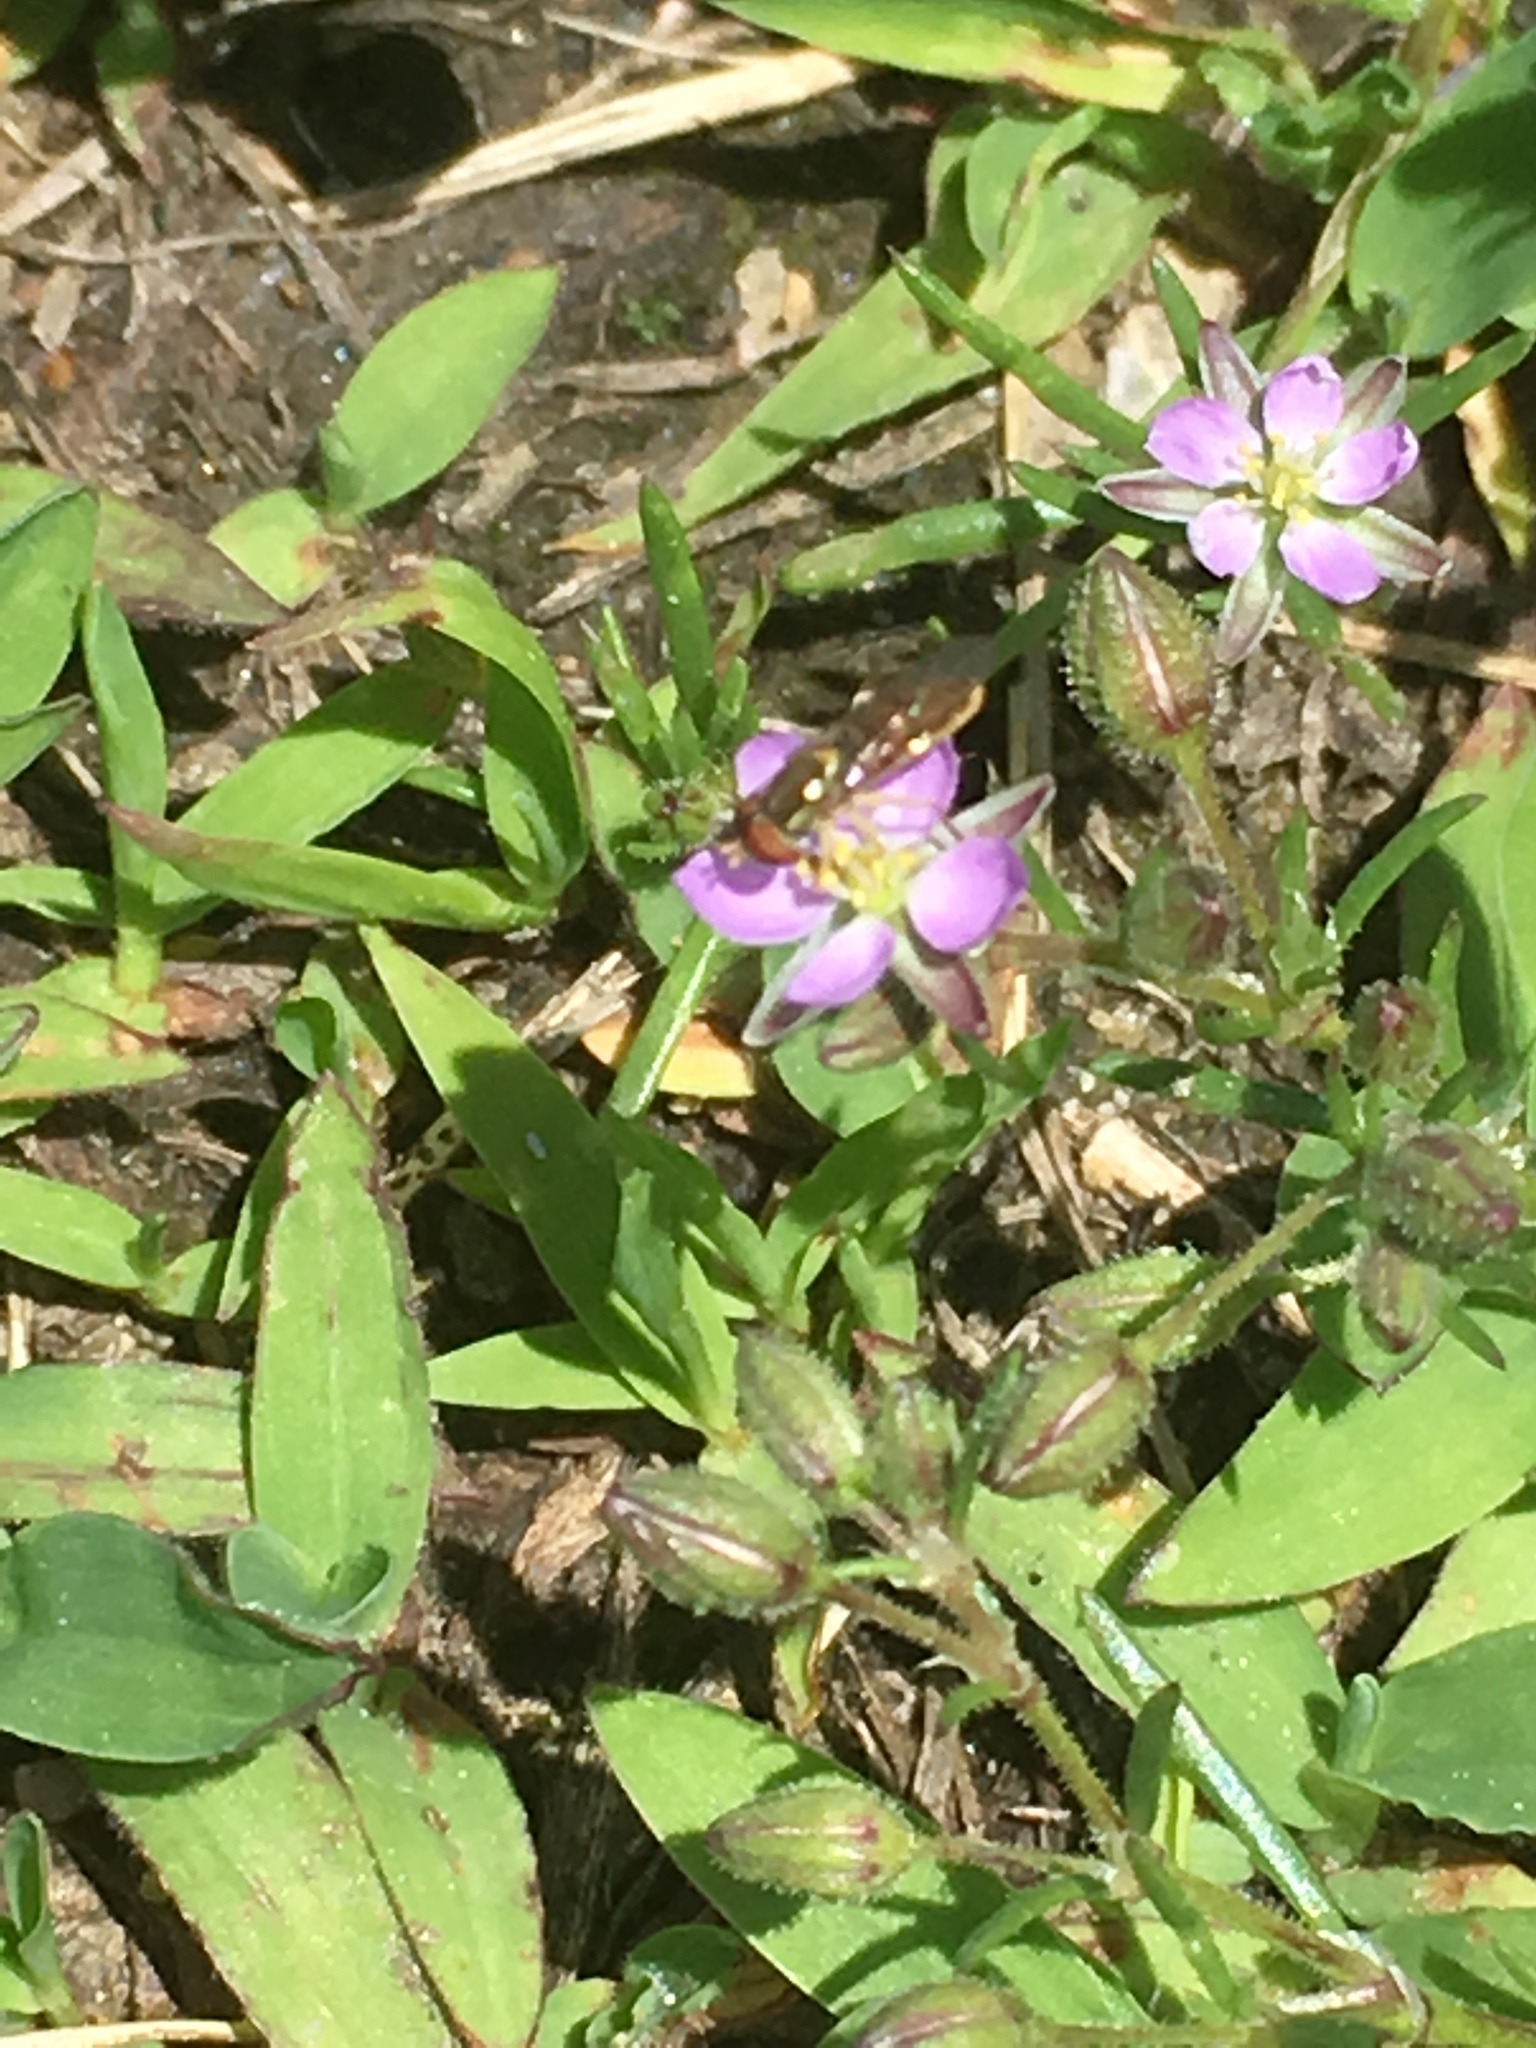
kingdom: Animalia
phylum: Arthropoda
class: Insecta
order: Diptera
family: Syrphidae
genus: Toxomerus
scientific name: Toxomerus
